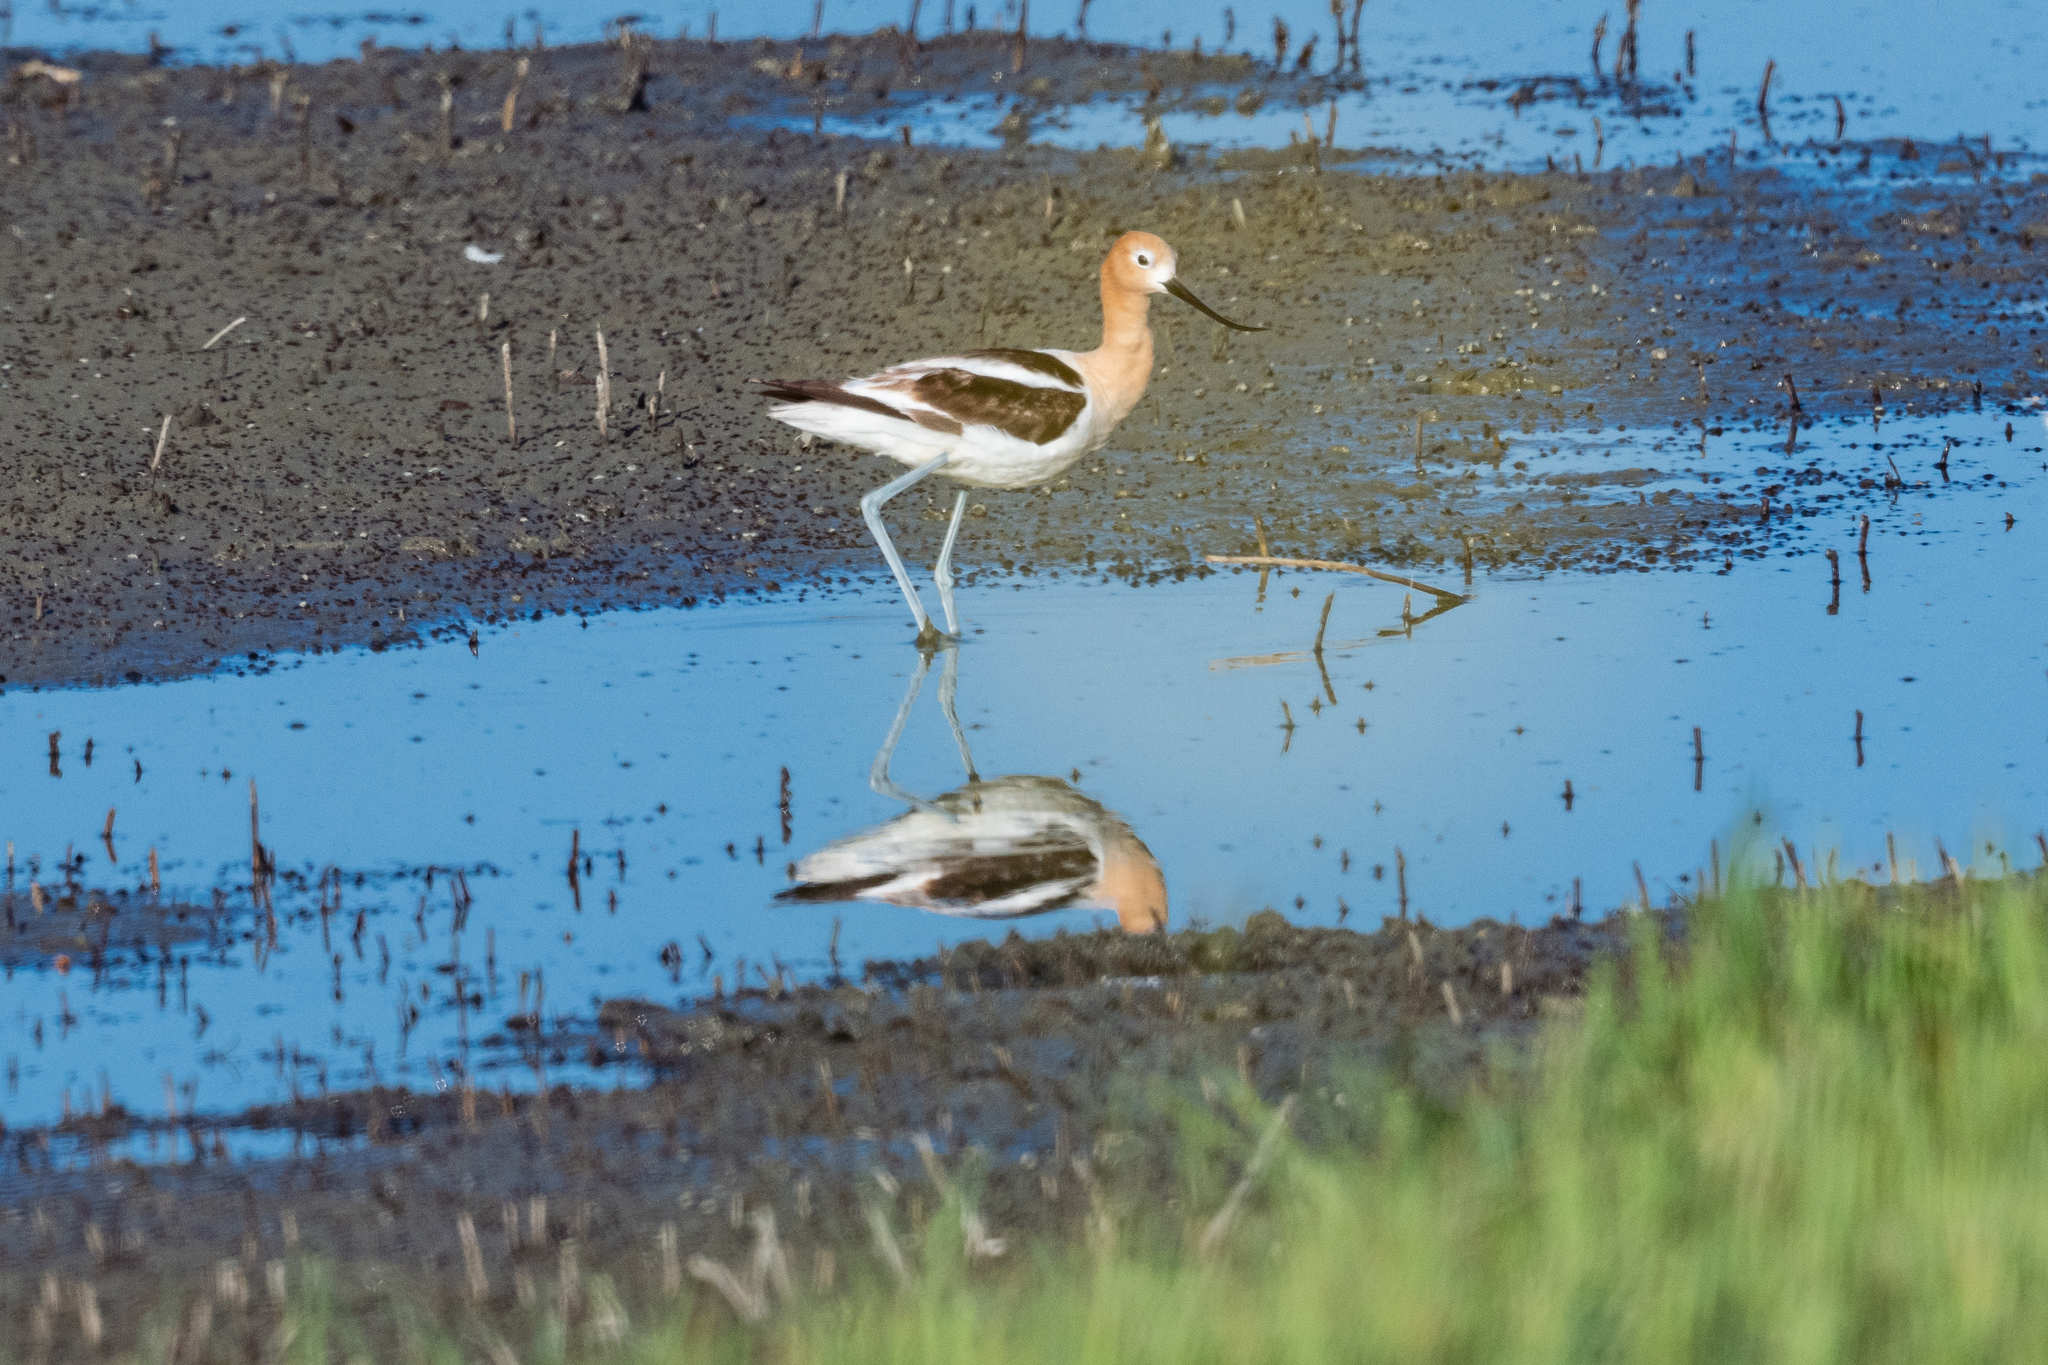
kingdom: Animalia
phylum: Chordata
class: Aves
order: Charadriiformes
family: Recurvirostridae
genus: Recurvirostra
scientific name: Recurvirostra americana
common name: American avocet
